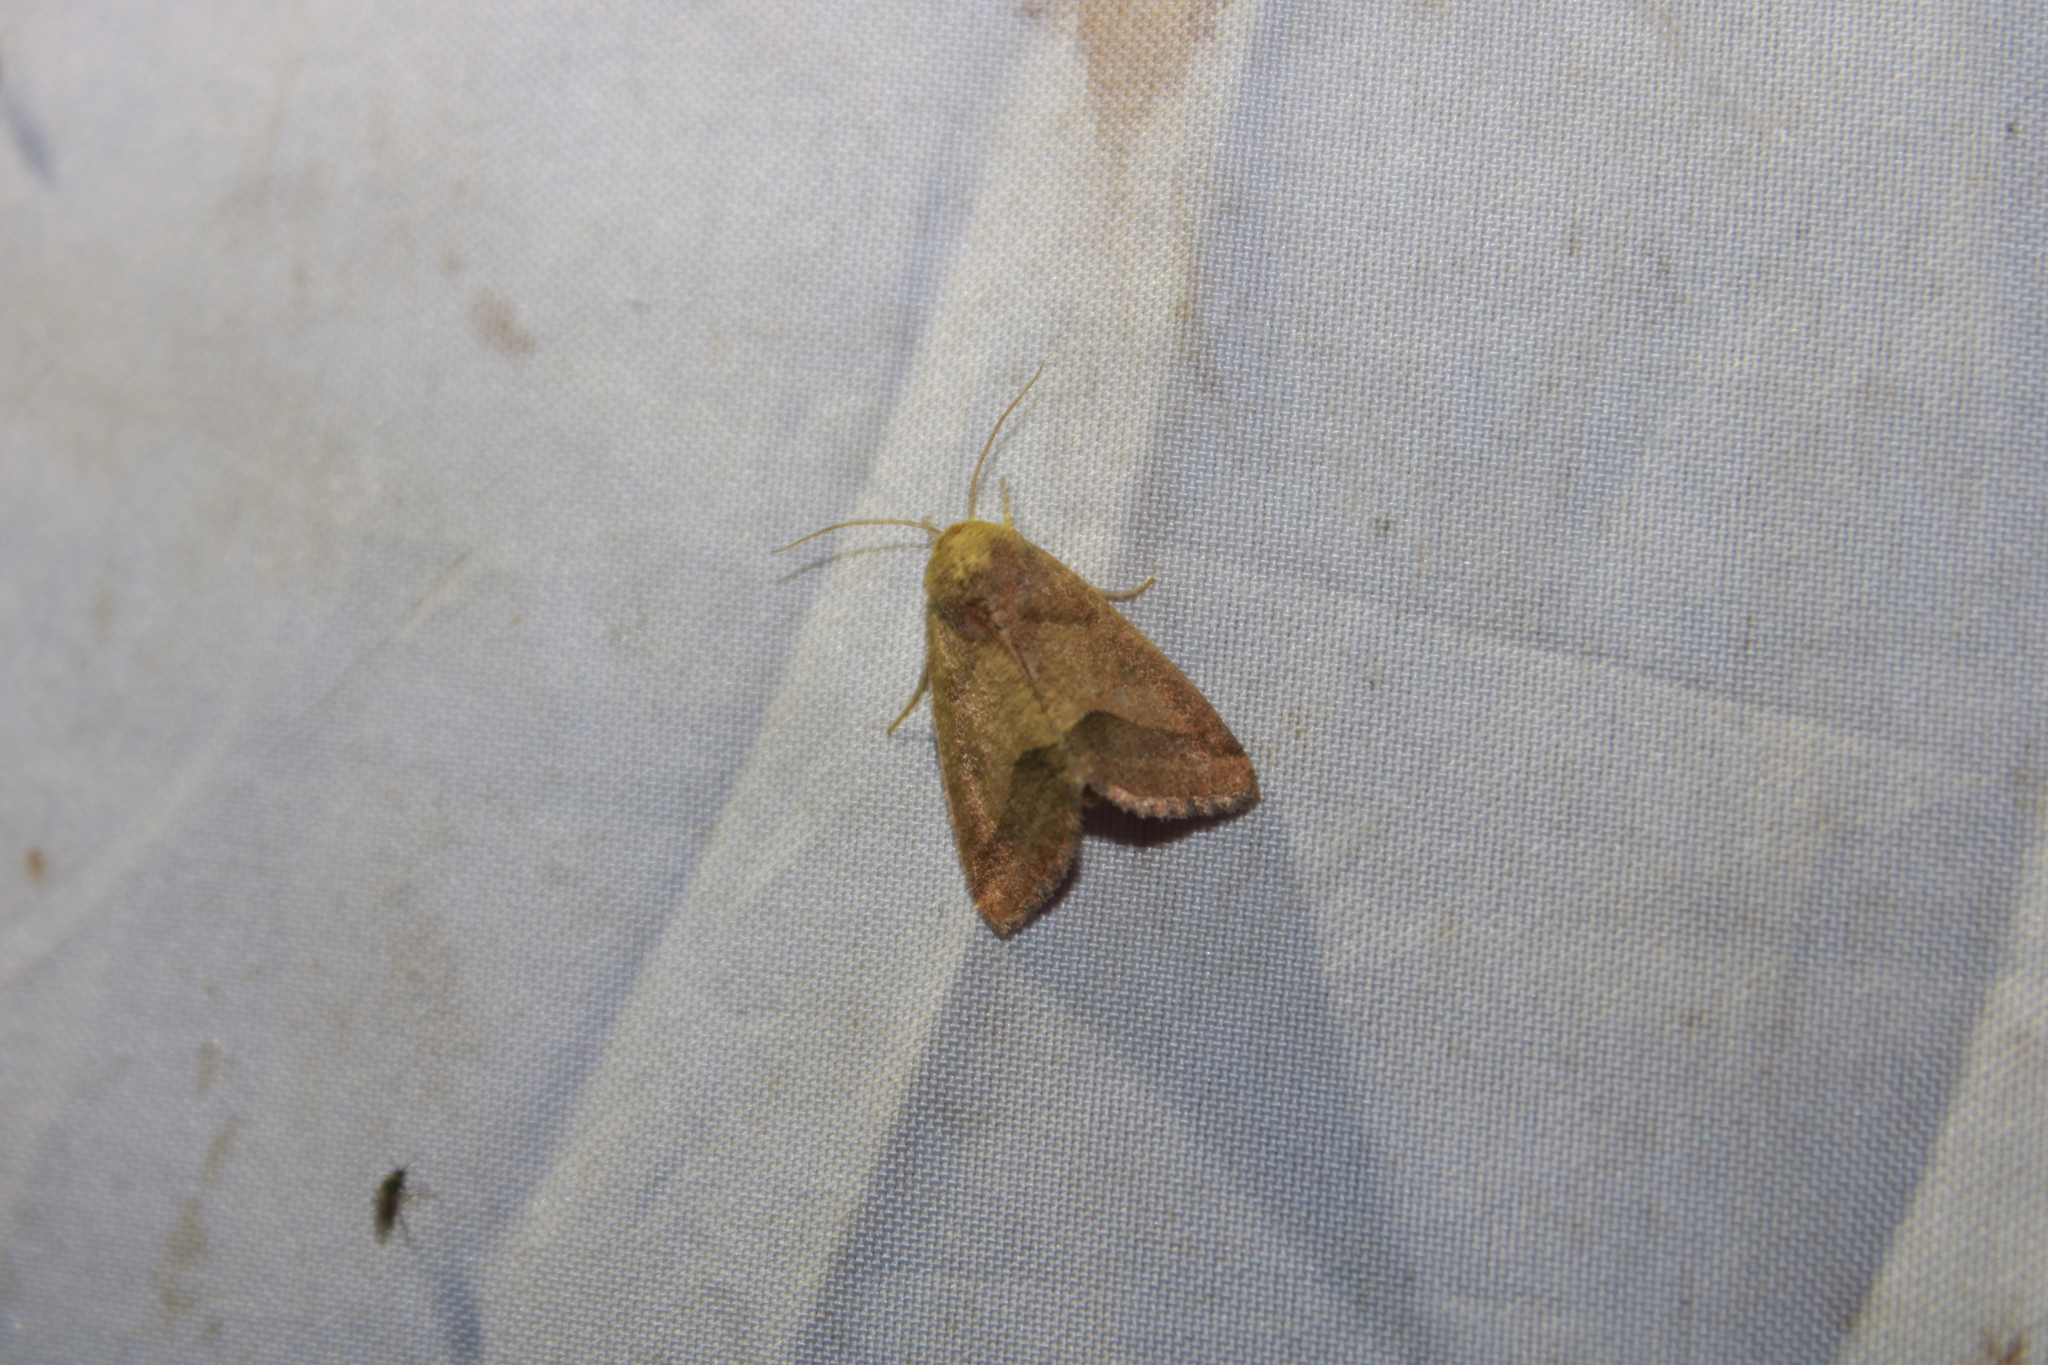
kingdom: Animalia
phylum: Arthropoda
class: Insecta
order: Lepidoptera
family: Noctuidae
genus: Schinia
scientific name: Schinia gracilenta
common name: Slender flower moth
